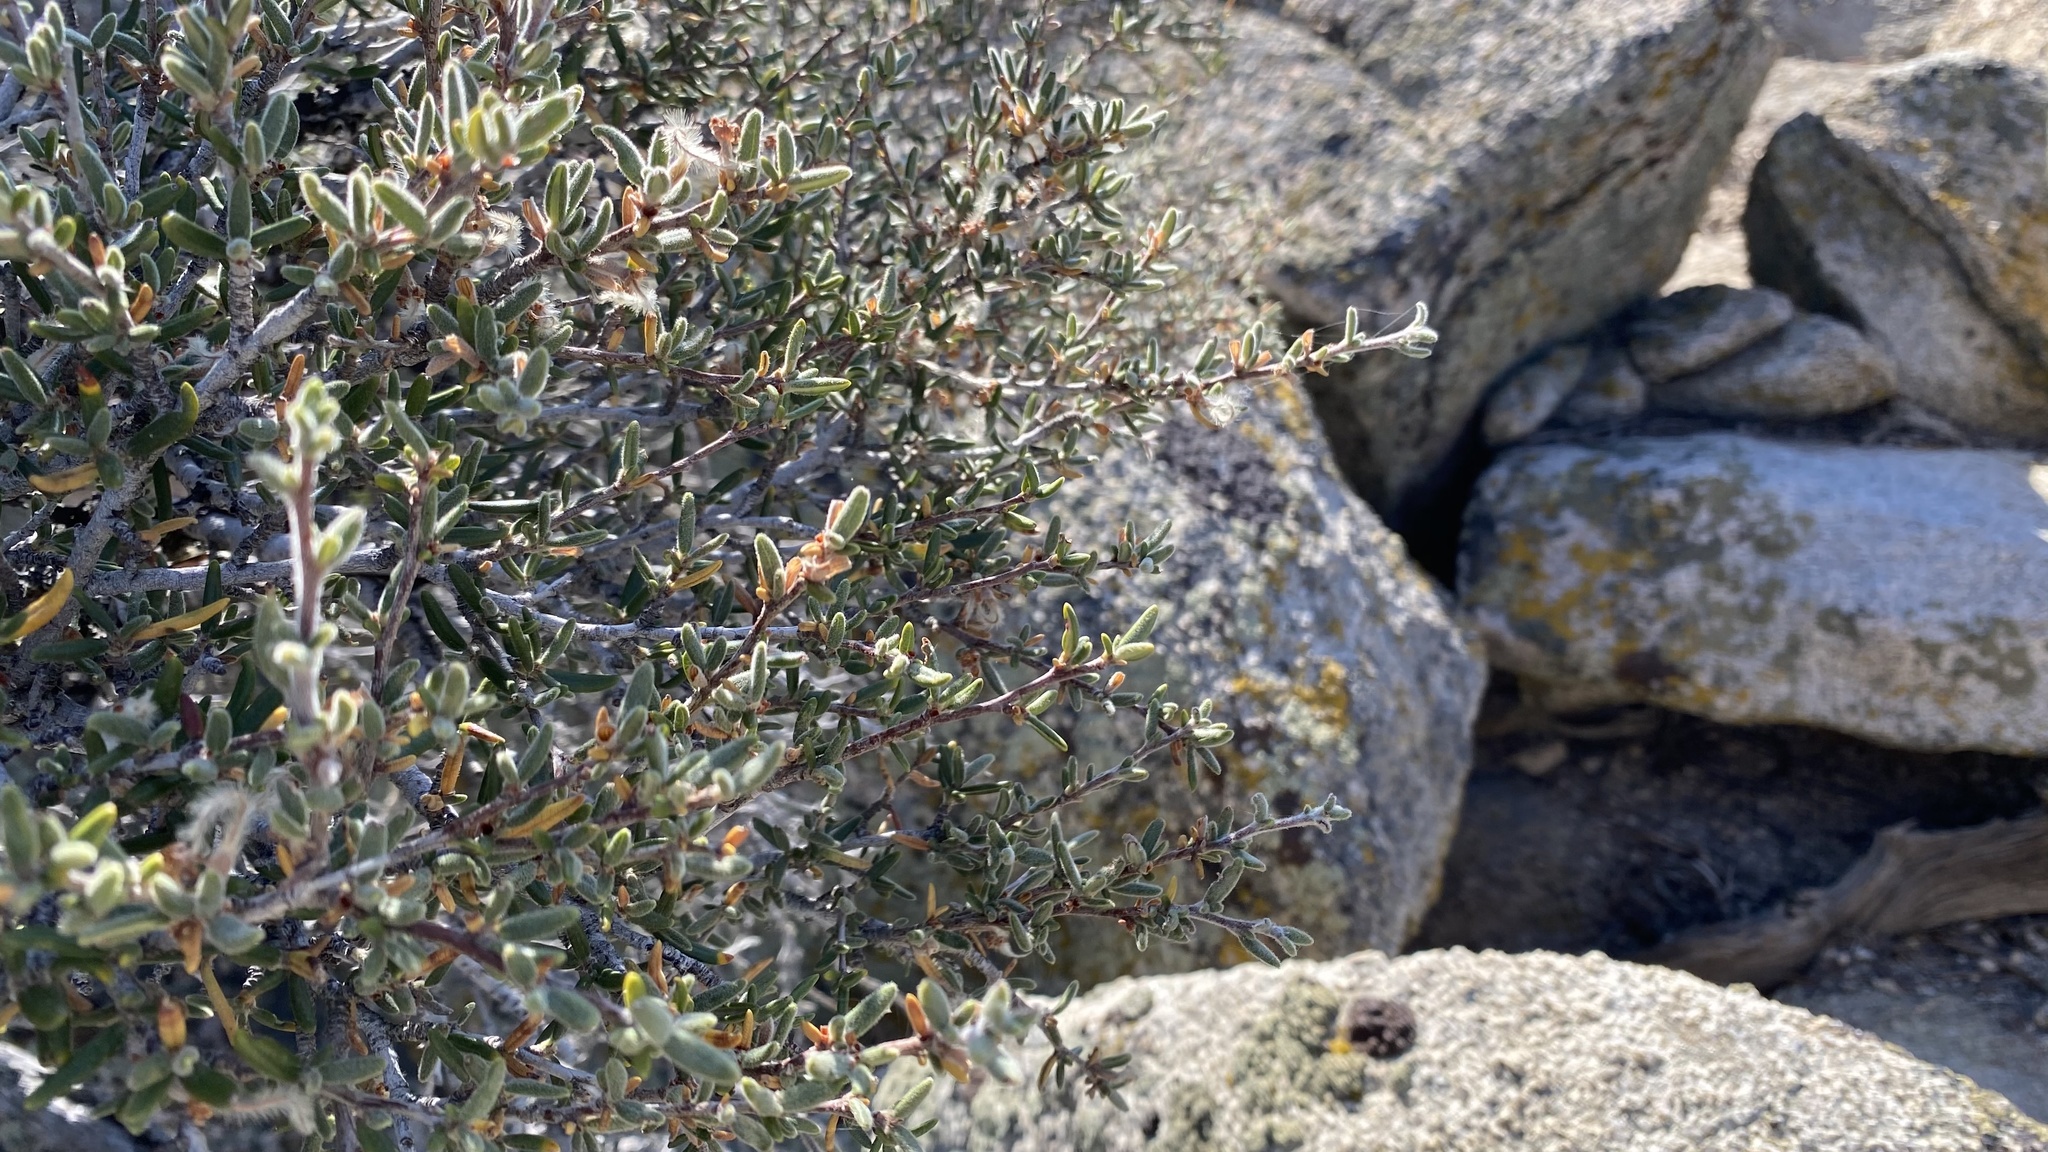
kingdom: Plantae
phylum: Tracheophyta
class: Magnoliopsida
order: Rosales
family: Rosaceae
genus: Cercocarpus
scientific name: Cercocarpus ledifolius
